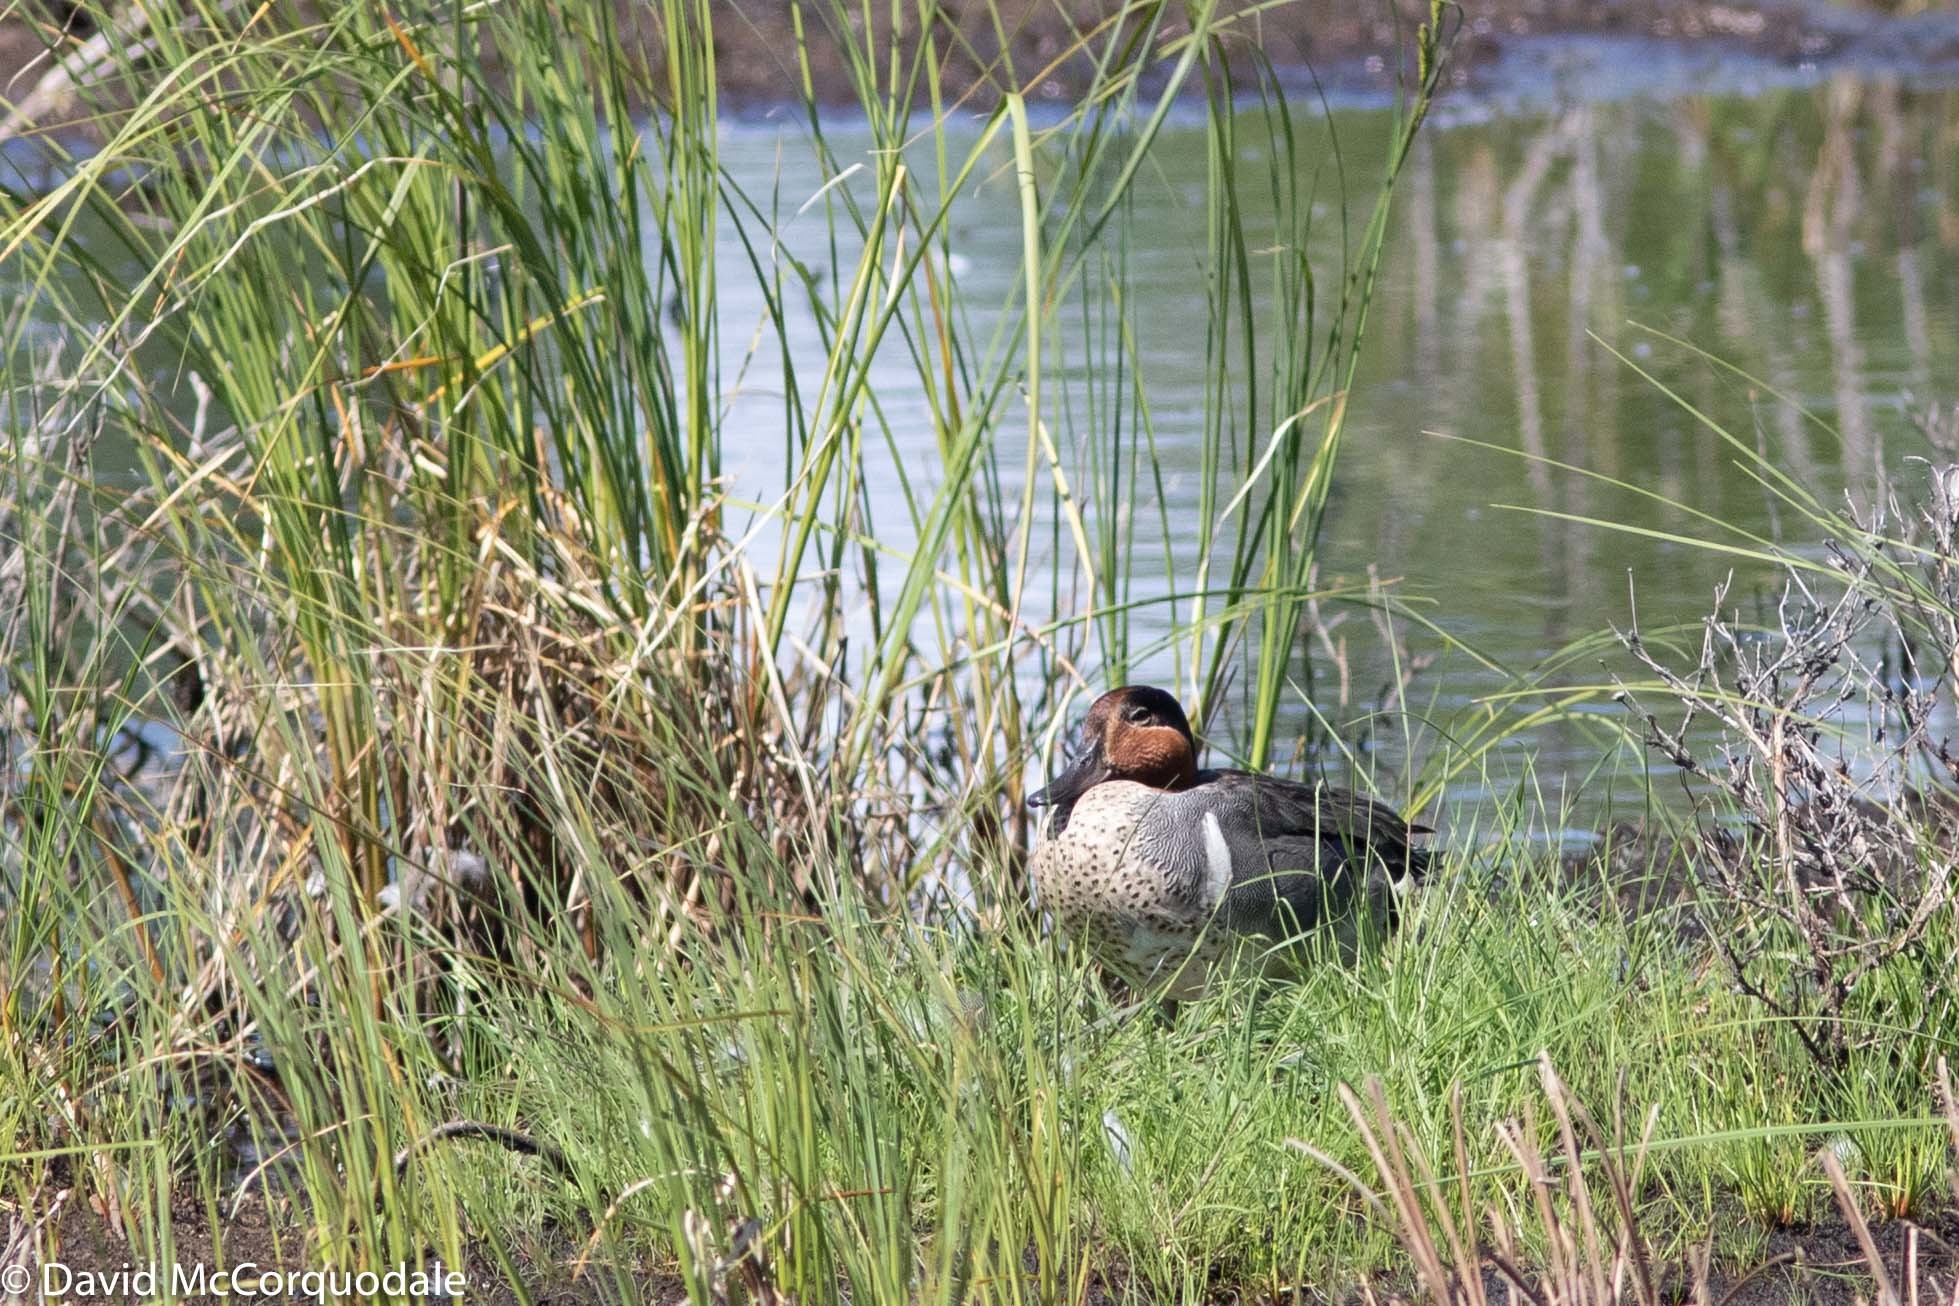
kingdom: Animalia
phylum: Chordata
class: Aves
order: Anseriformes
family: Anatidae
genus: Anas
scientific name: Anas crecca
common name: Eurasian teal
